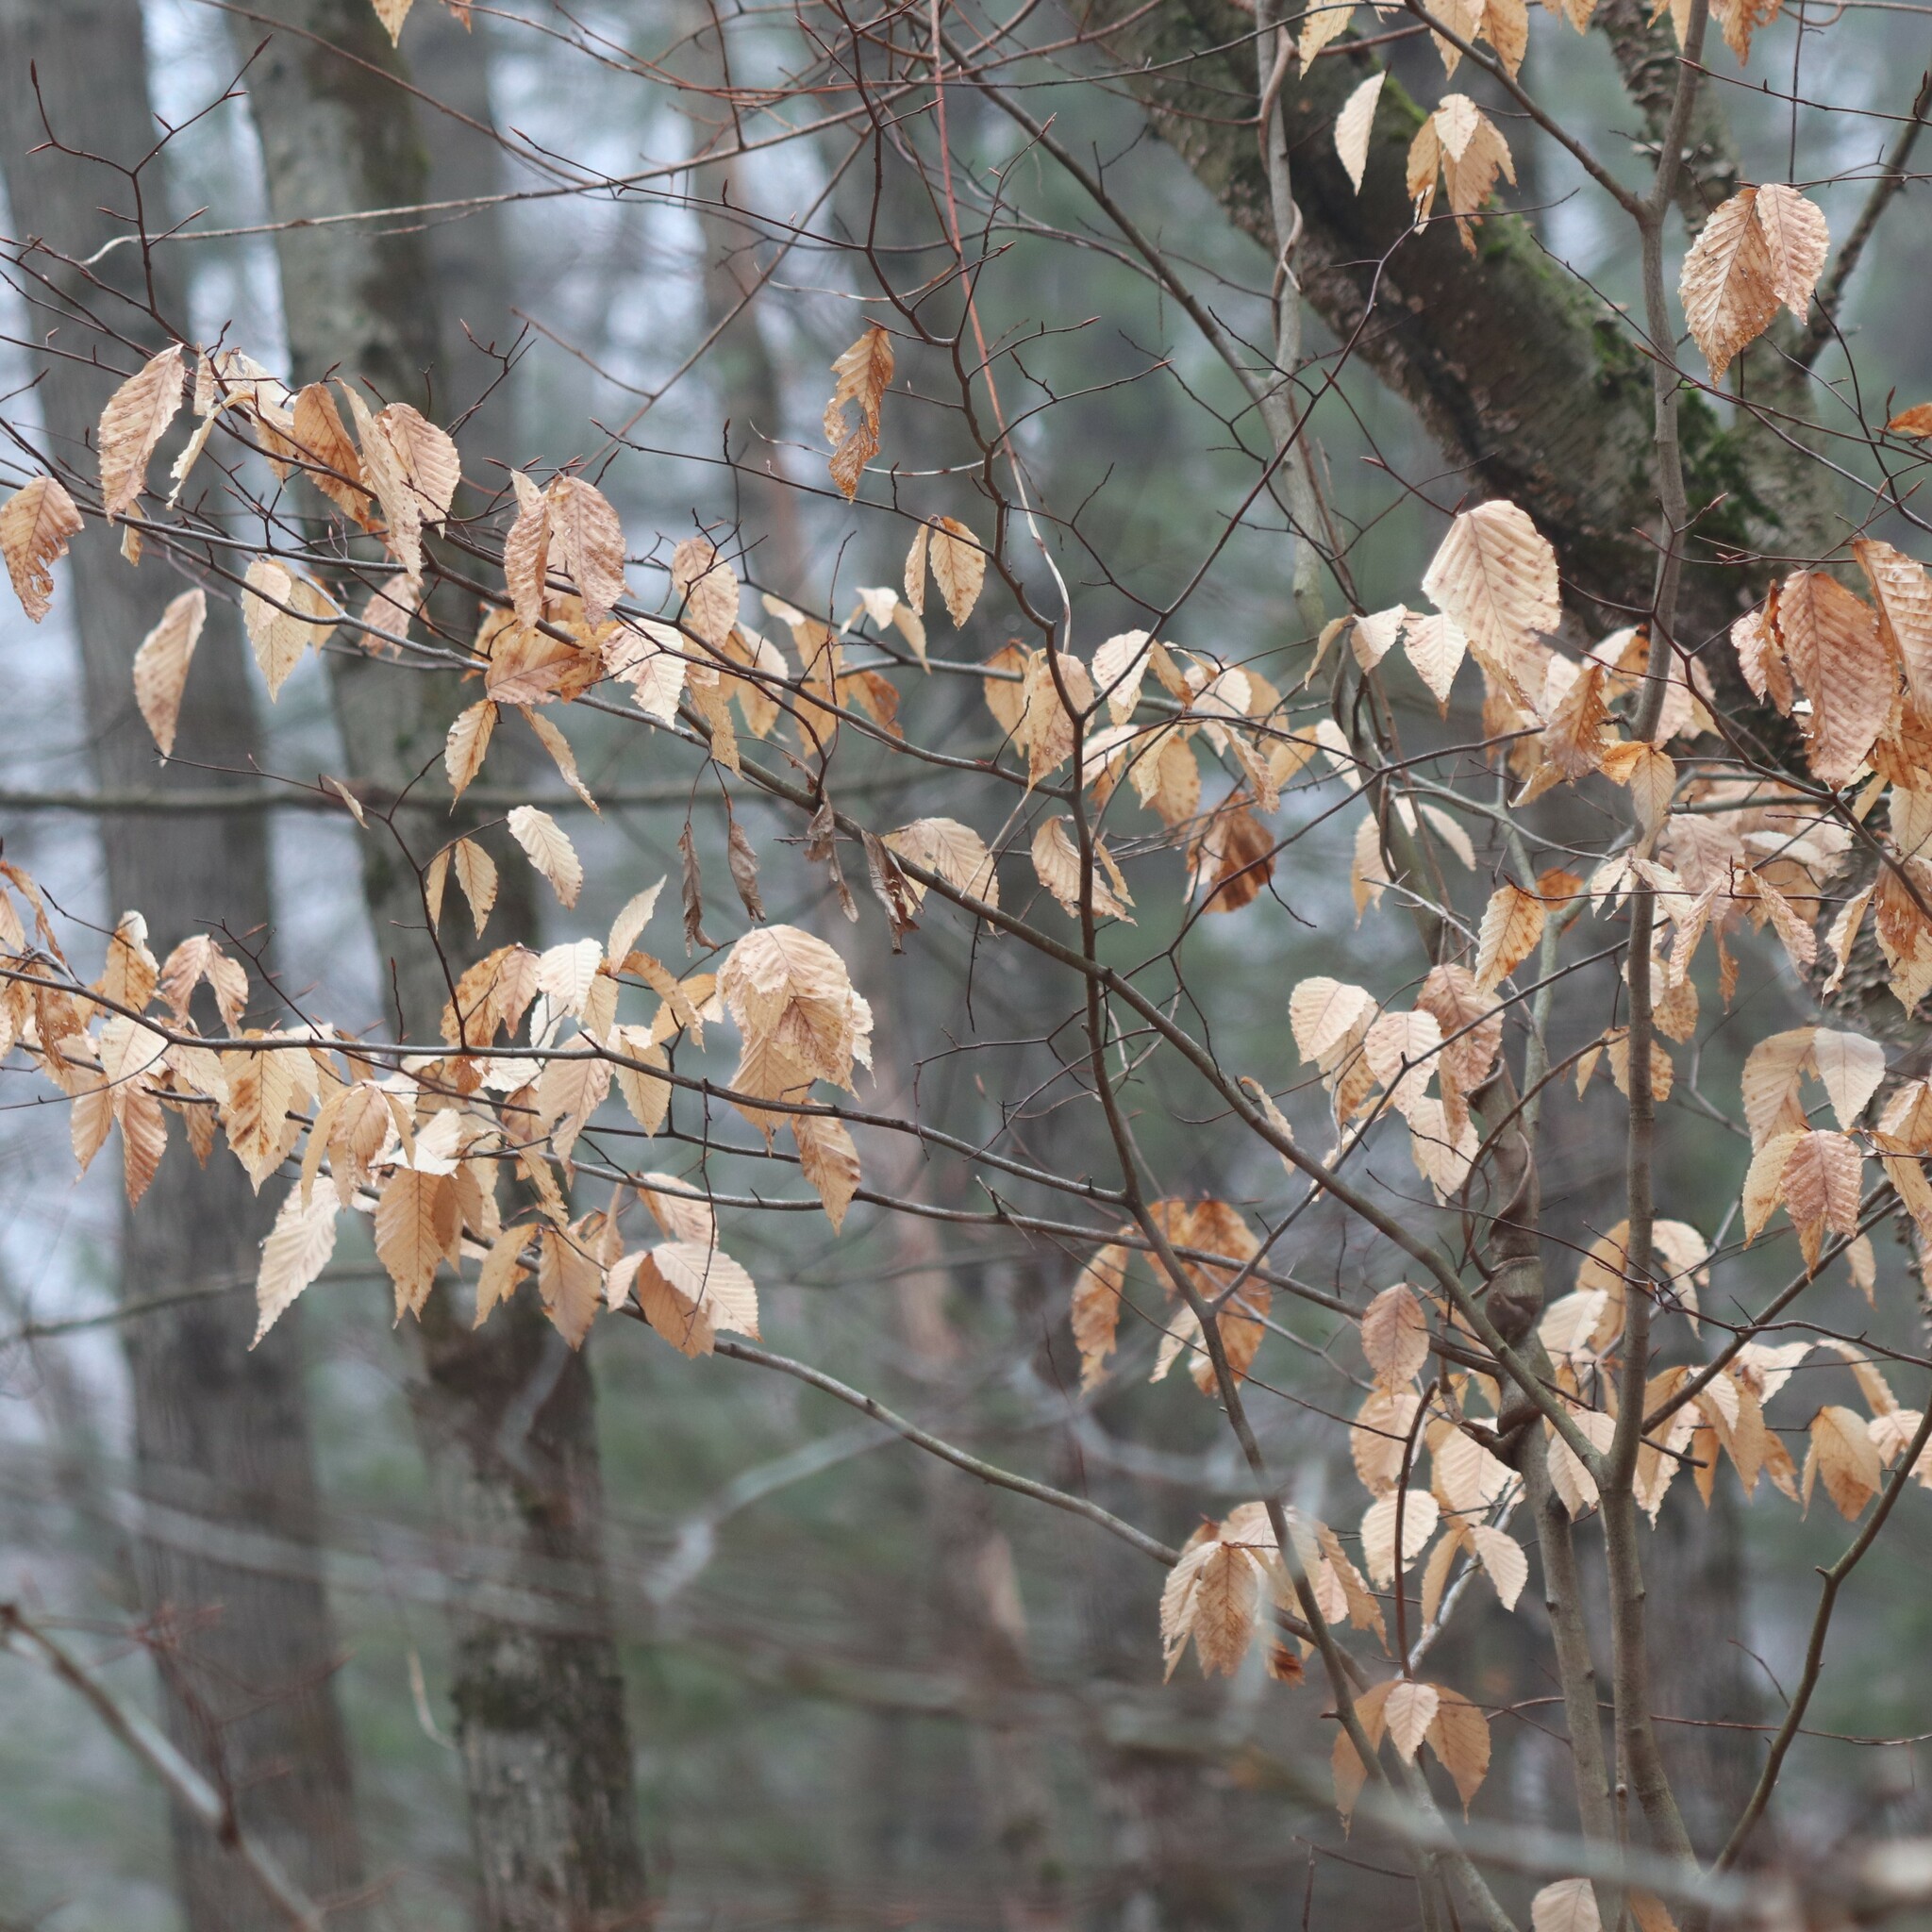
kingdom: Plantae
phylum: Tracheophyta
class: Magnoliopsida
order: Fagales
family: Fagaceae
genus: Fagus
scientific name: Fagus grandifolia
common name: American beech
